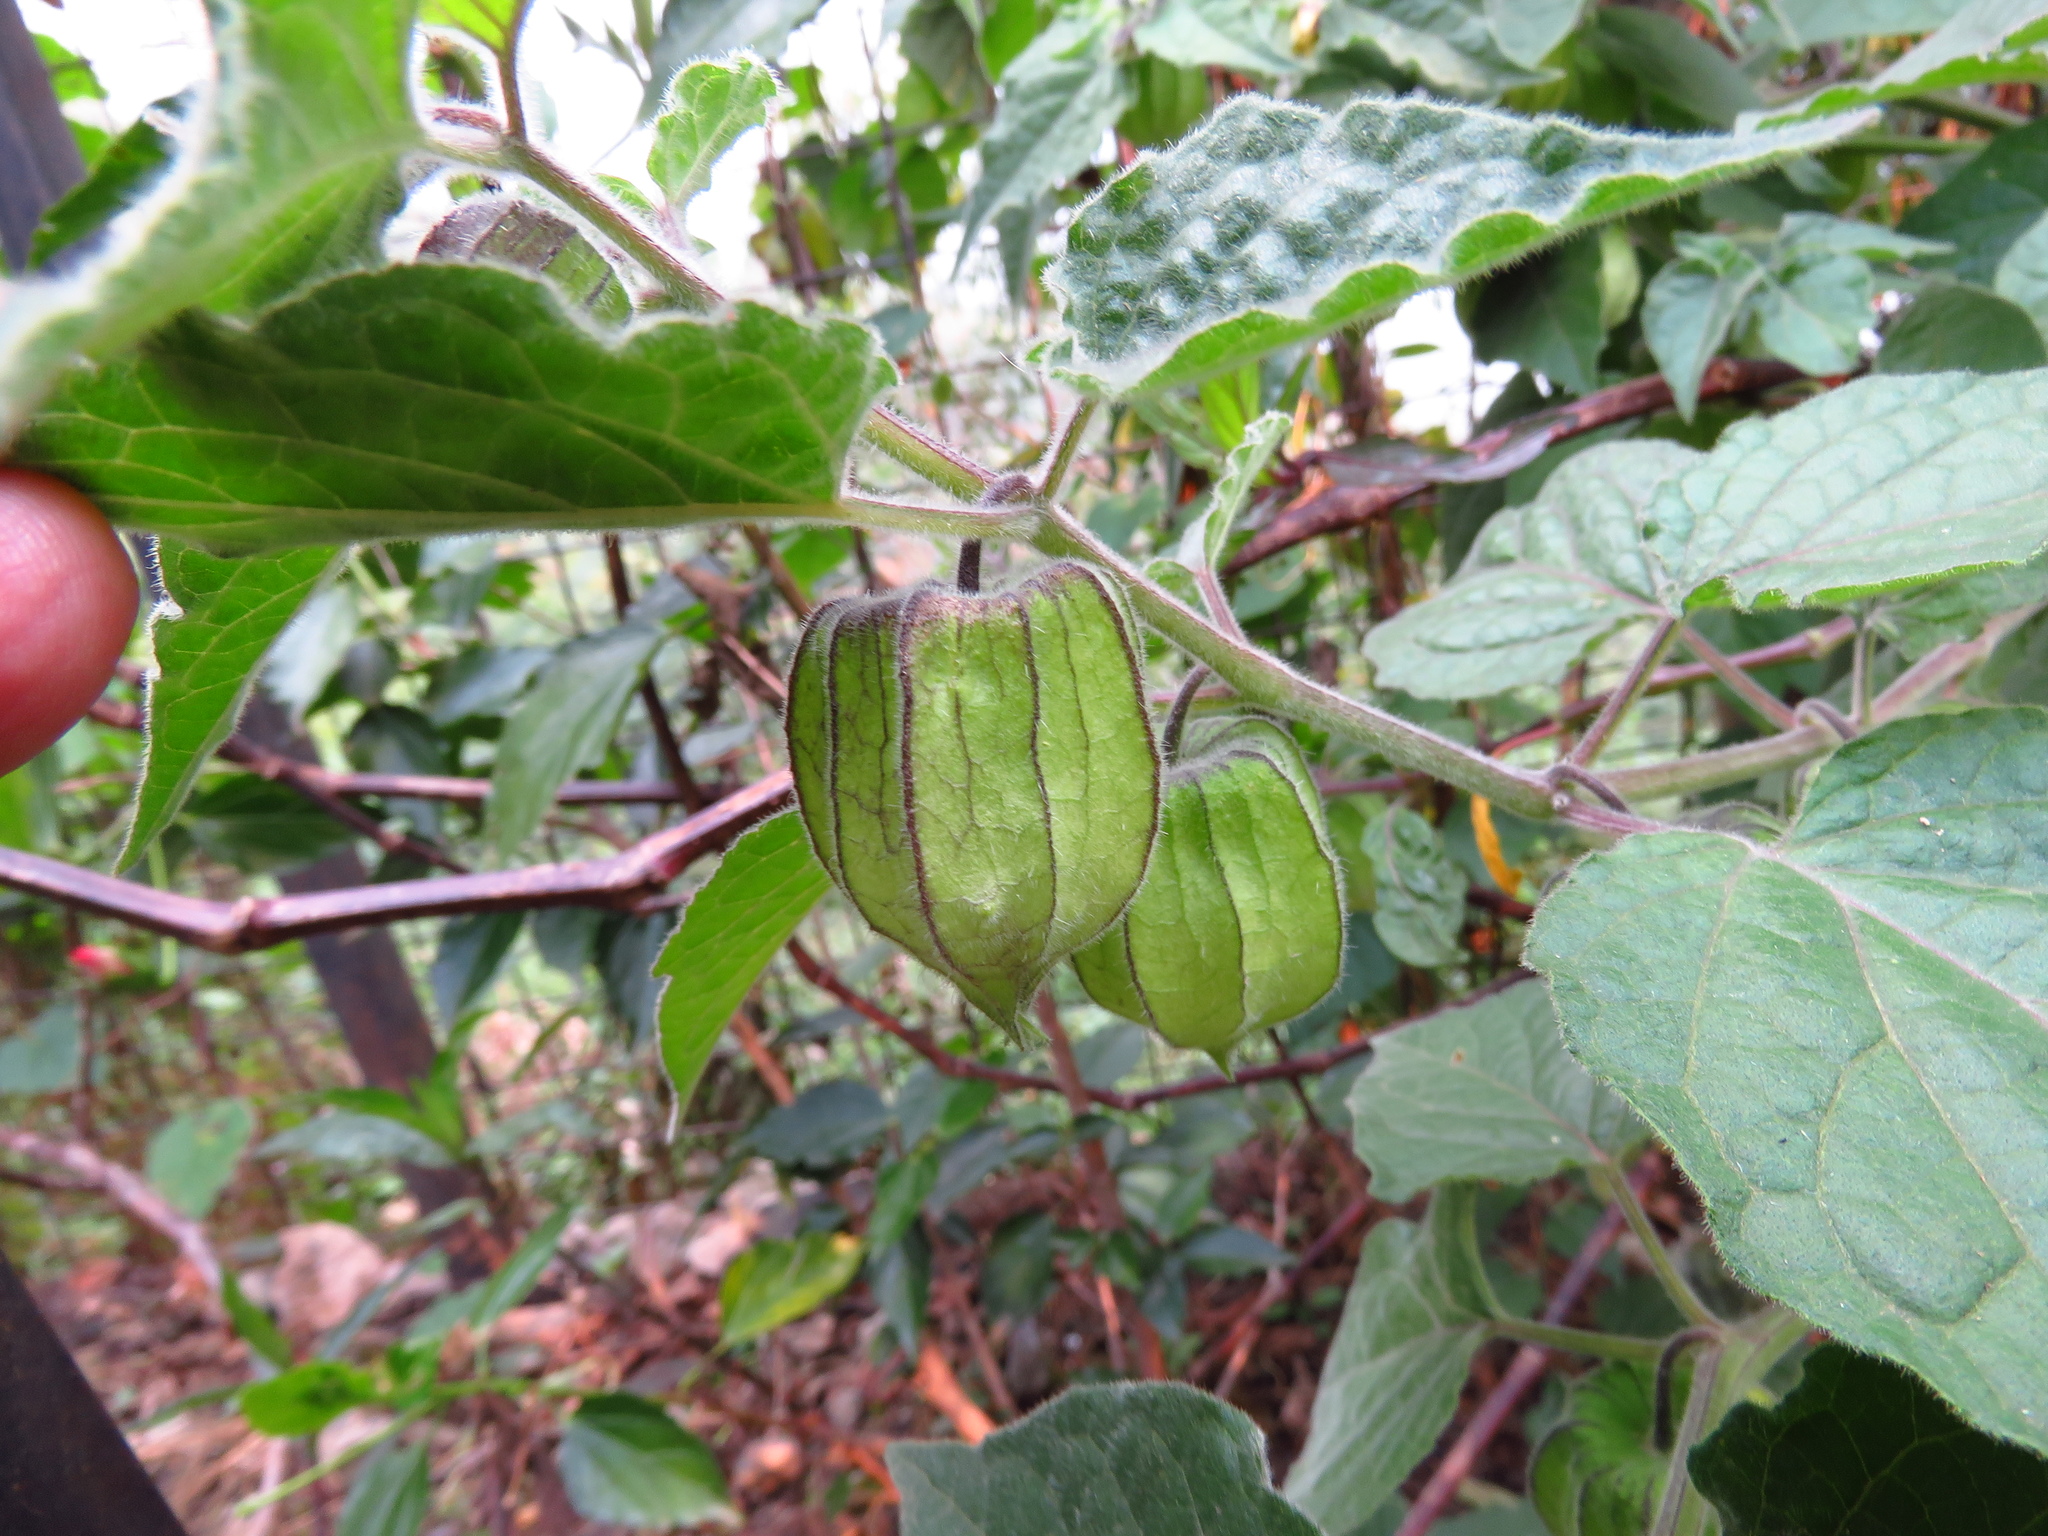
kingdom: Plantae
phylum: Tracheophyta
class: Magnoliopsida
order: Solanales
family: Solanaceae
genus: Physalis
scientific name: Physalis peruviana
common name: Cape-gooseberry
